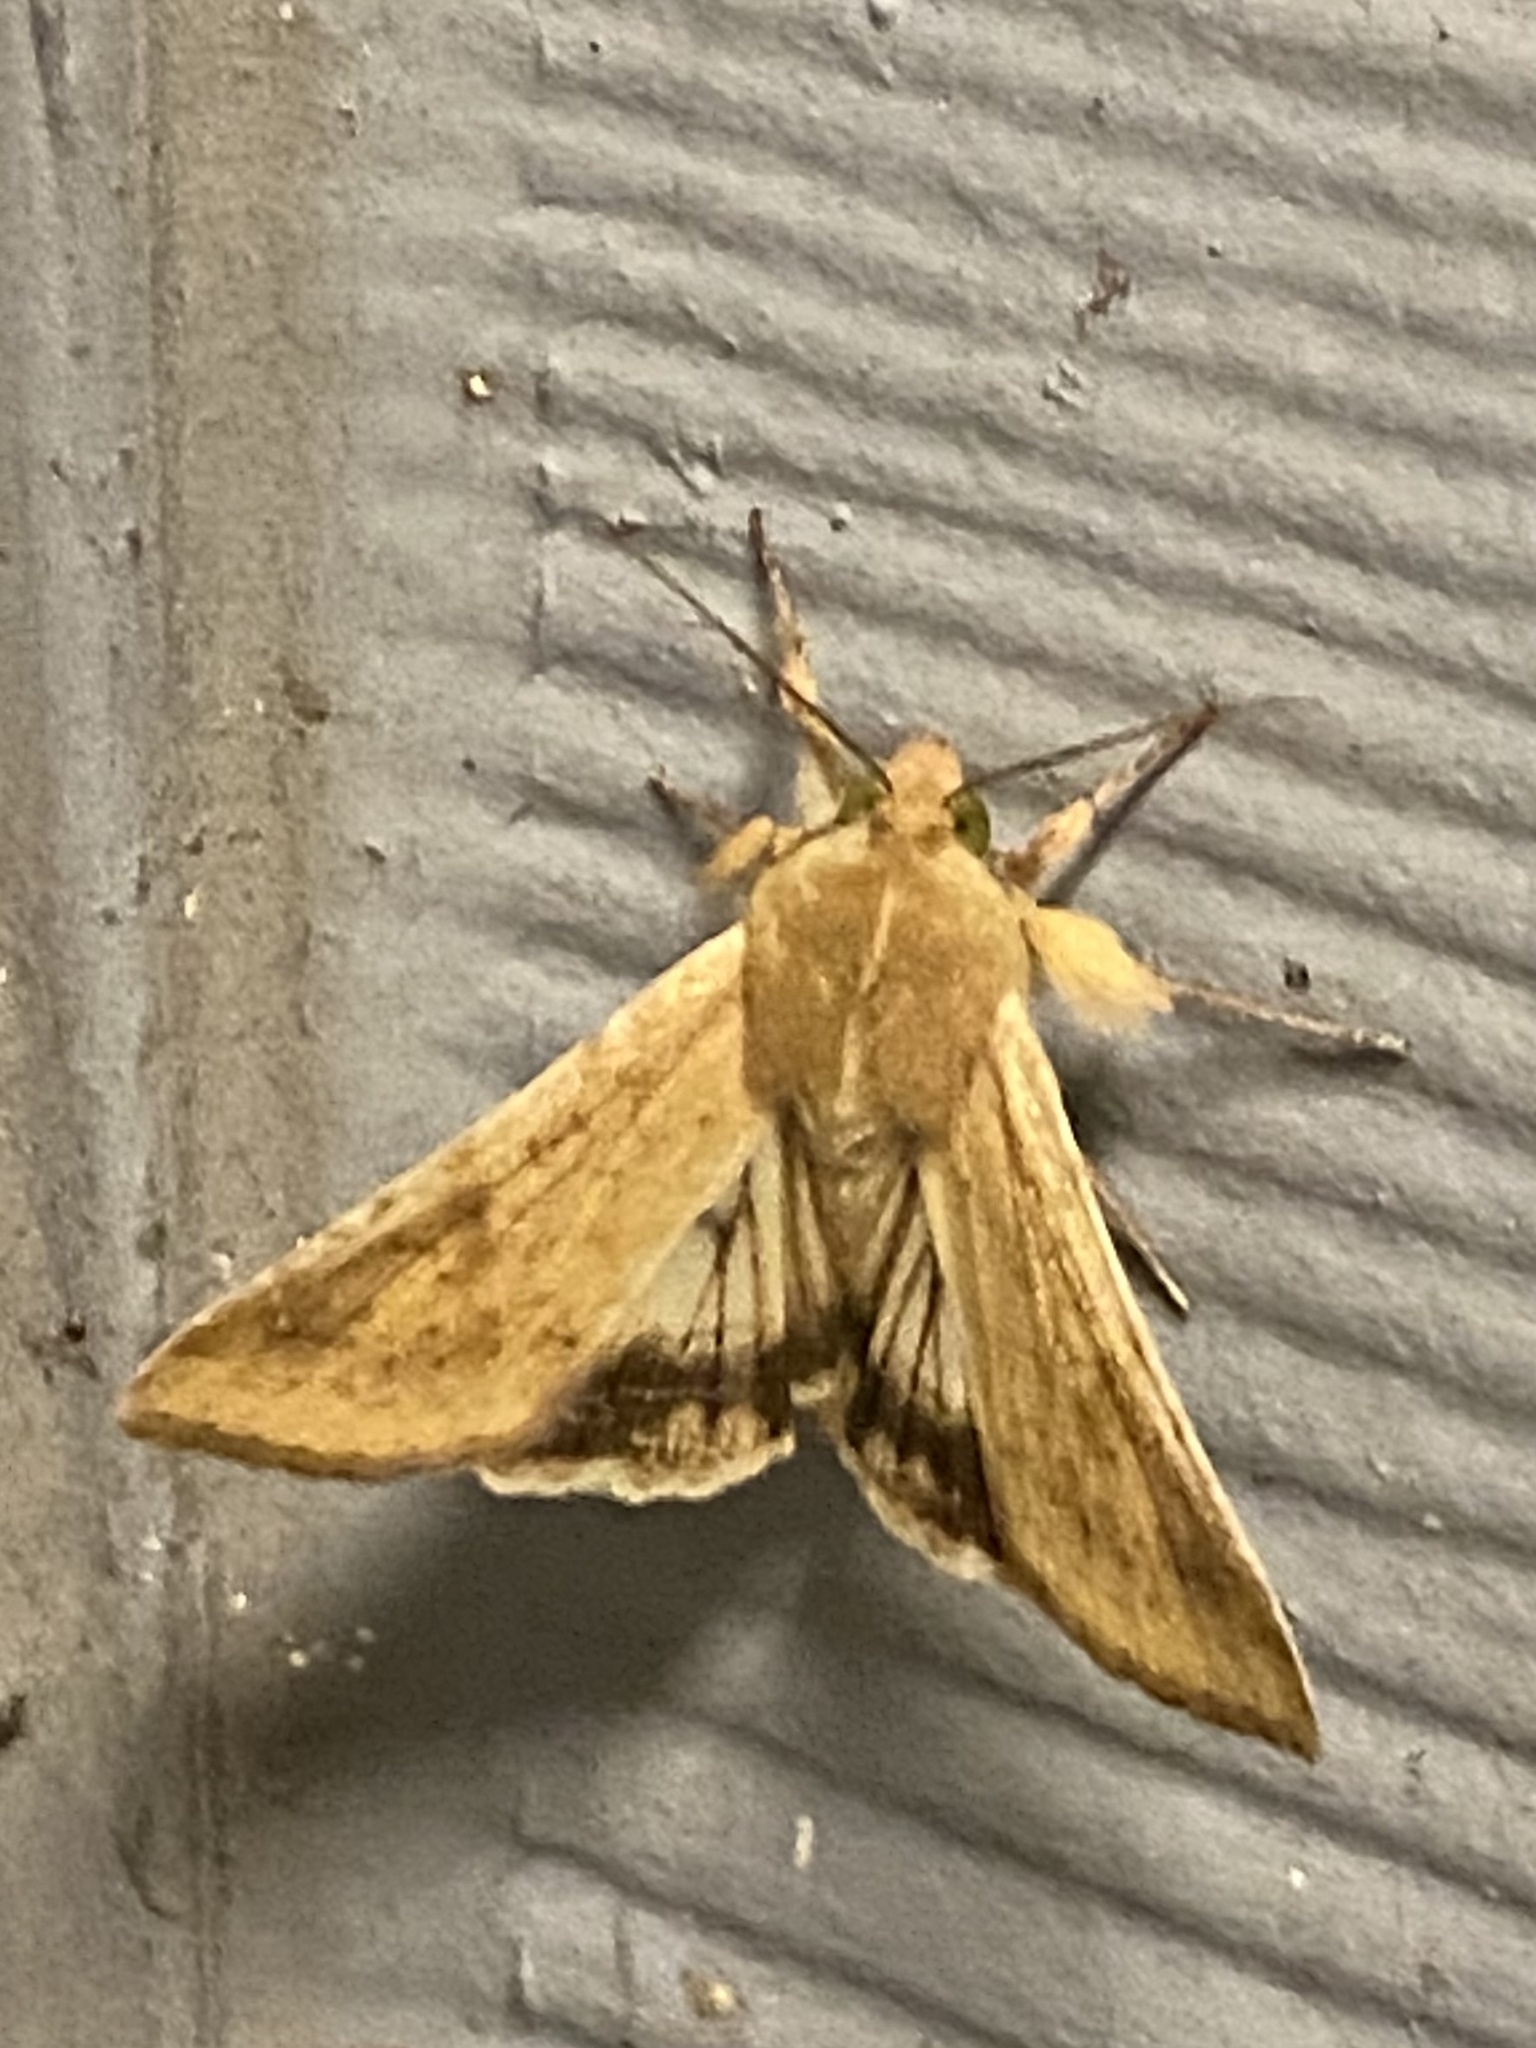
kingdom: Animalia
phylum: Arthropoda
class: Insecta
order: Lepidoptera
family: Noctuidae
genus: Helicoverpa
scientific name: Helicoverpa zea
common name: Bollworm
